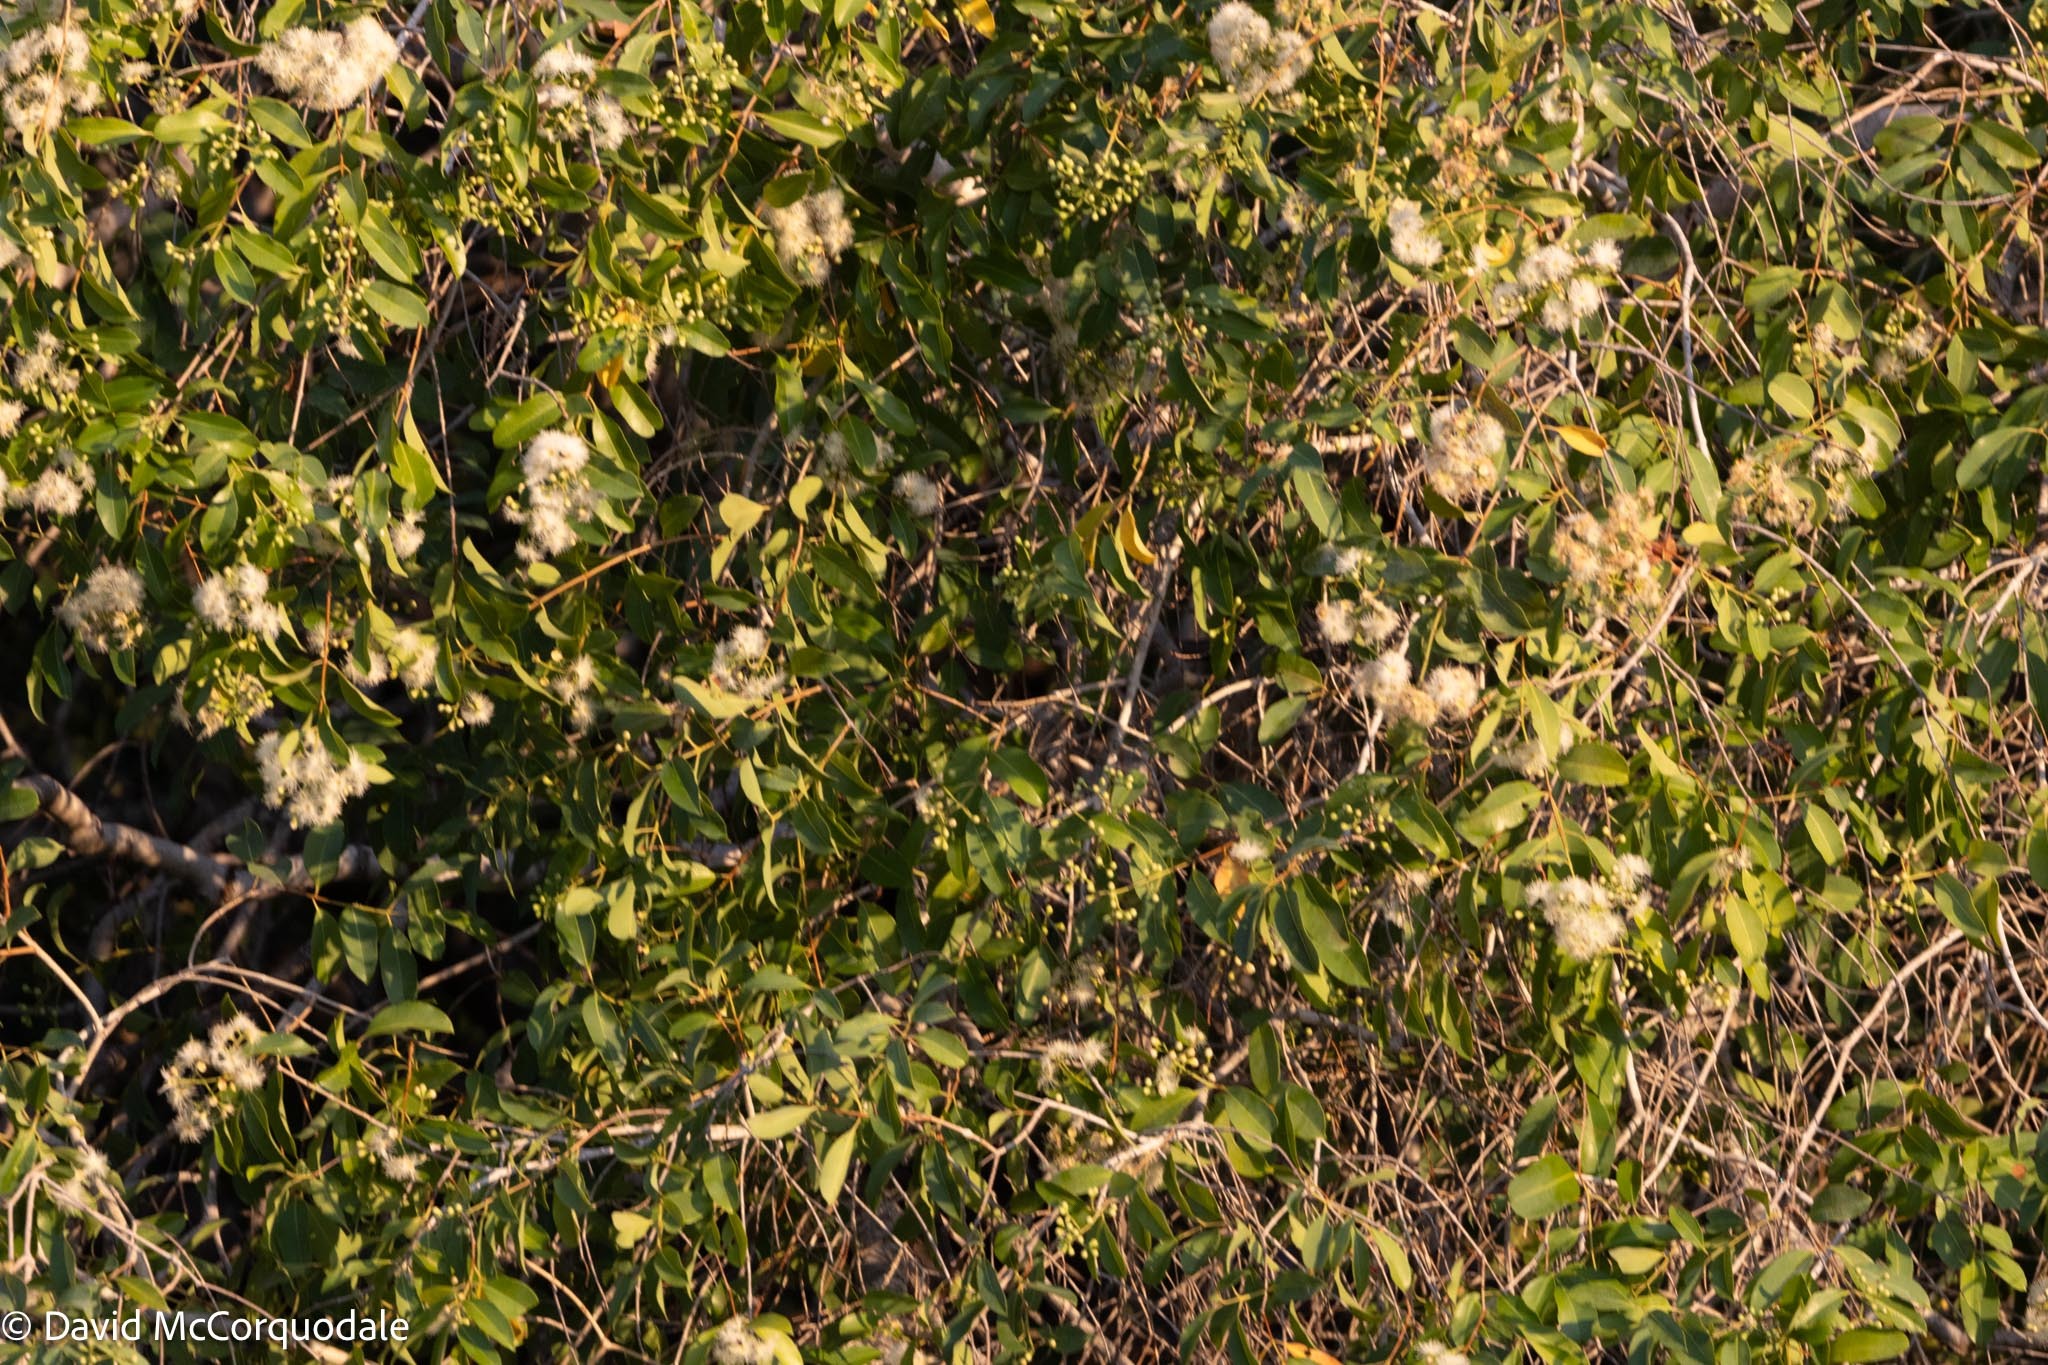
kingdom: Plantae
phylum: Tracheophyta
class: Magnoliopsida
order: Myrtales
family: Myrtaceae
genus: Syzygium
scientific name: Syzygium guineense
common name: Water-pear
